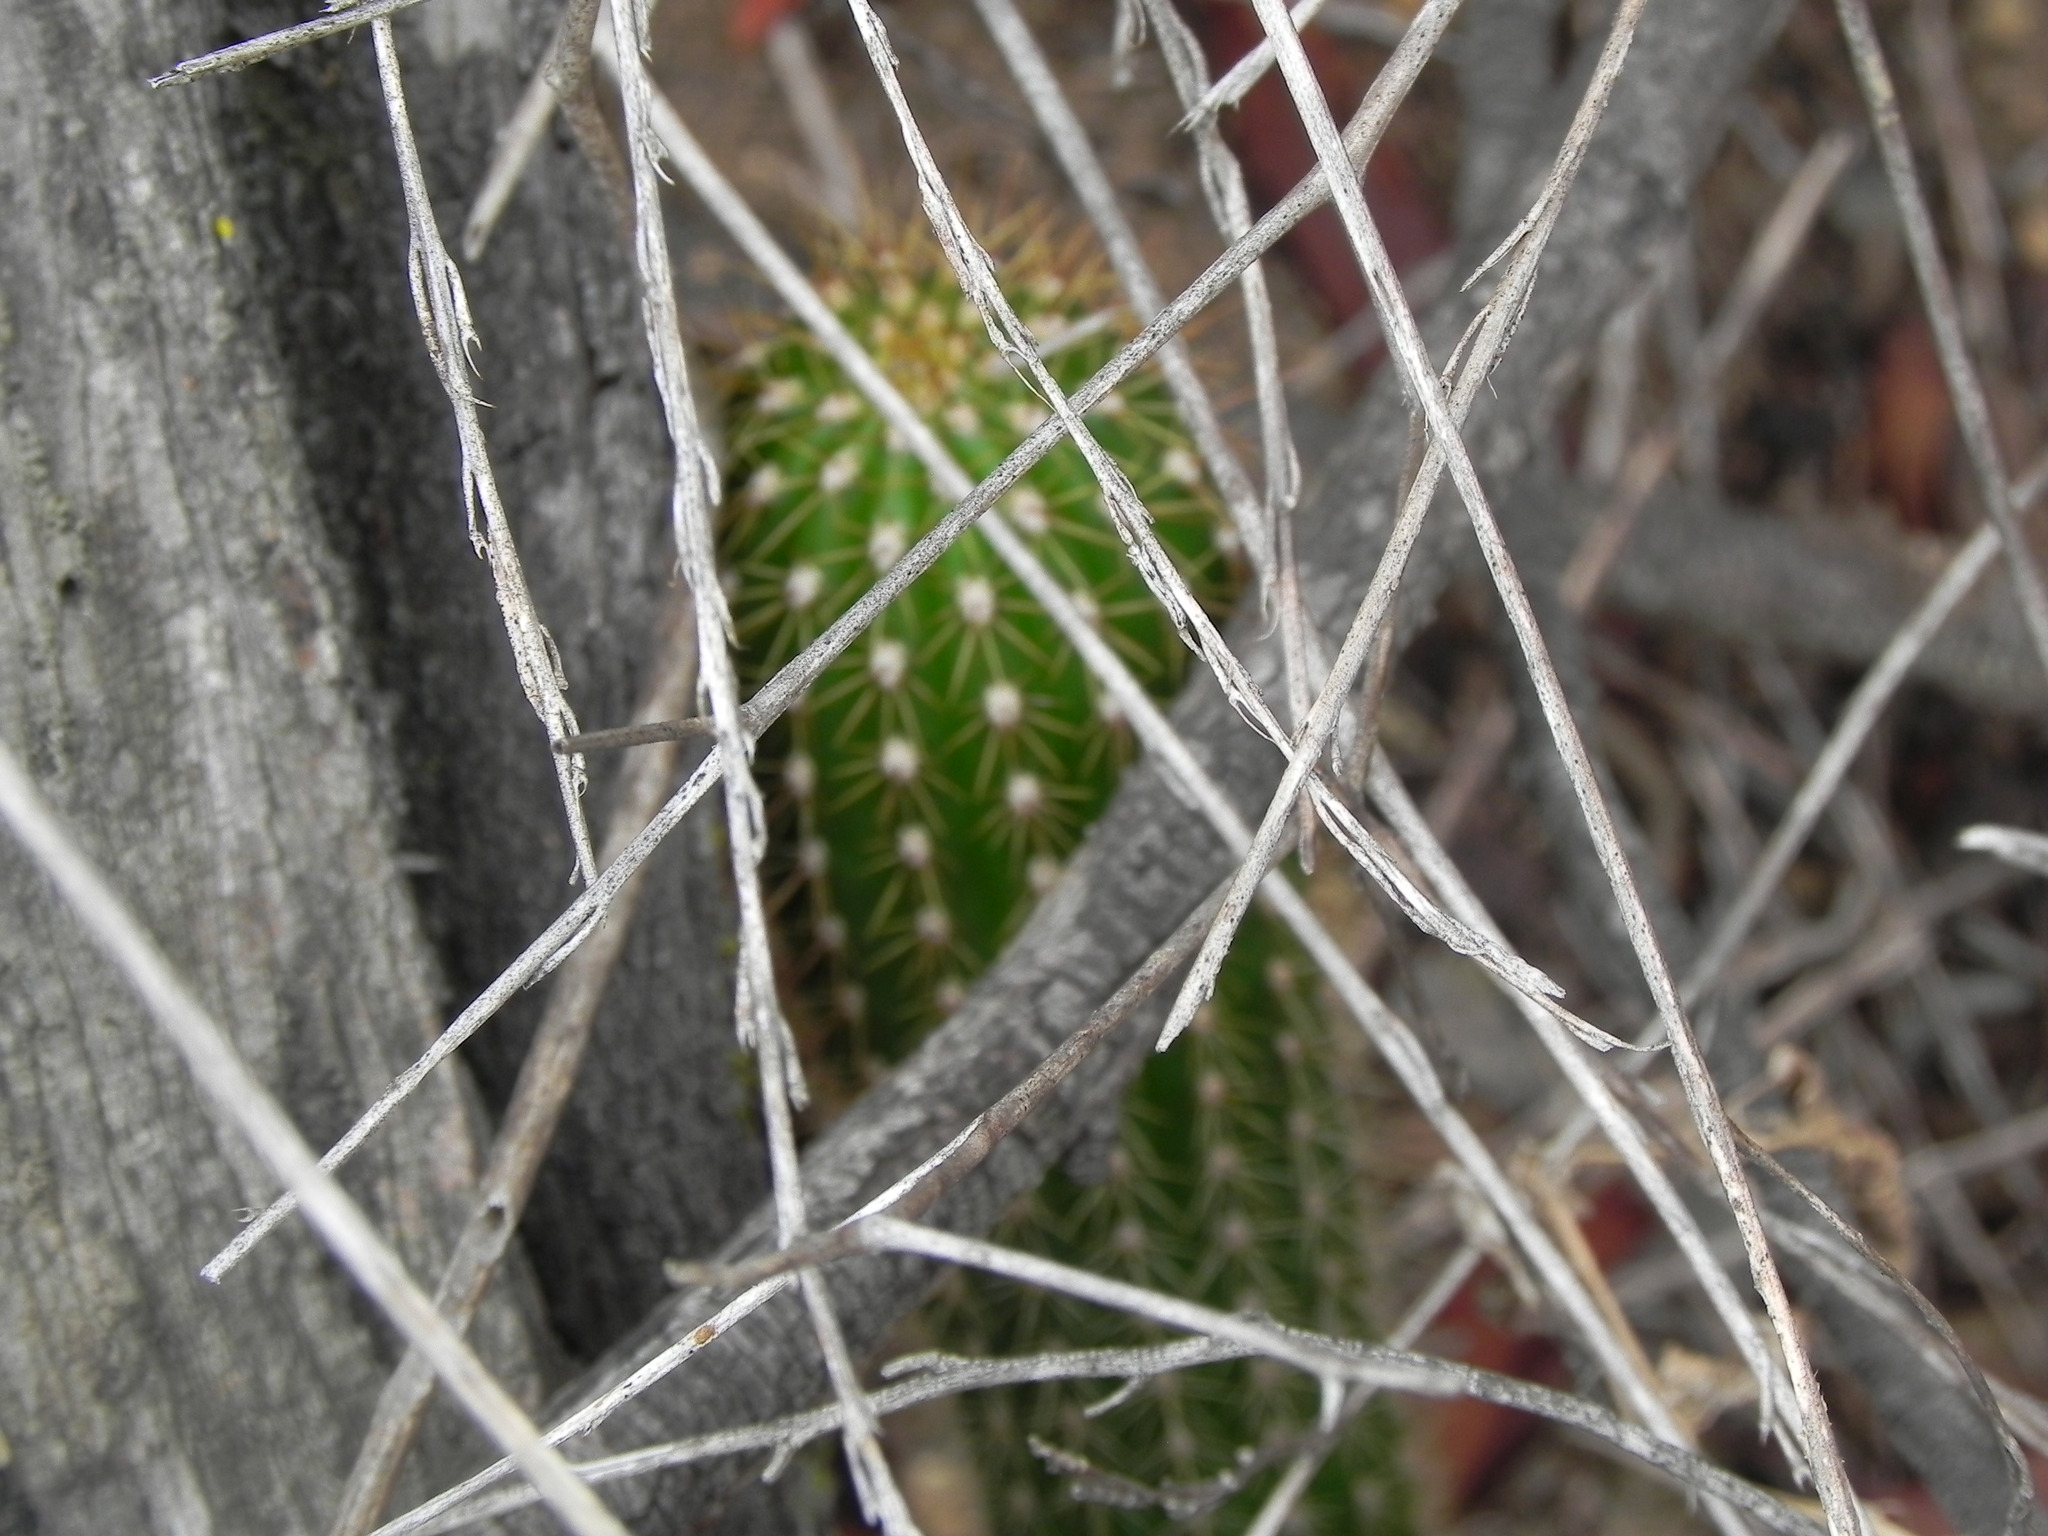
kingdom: Plantae
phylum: Tracheophyta
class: Magnoliopsida
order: Caryophyllales
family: Cactaceae
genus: Soehrensia
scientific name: Soehrensia spachiana
